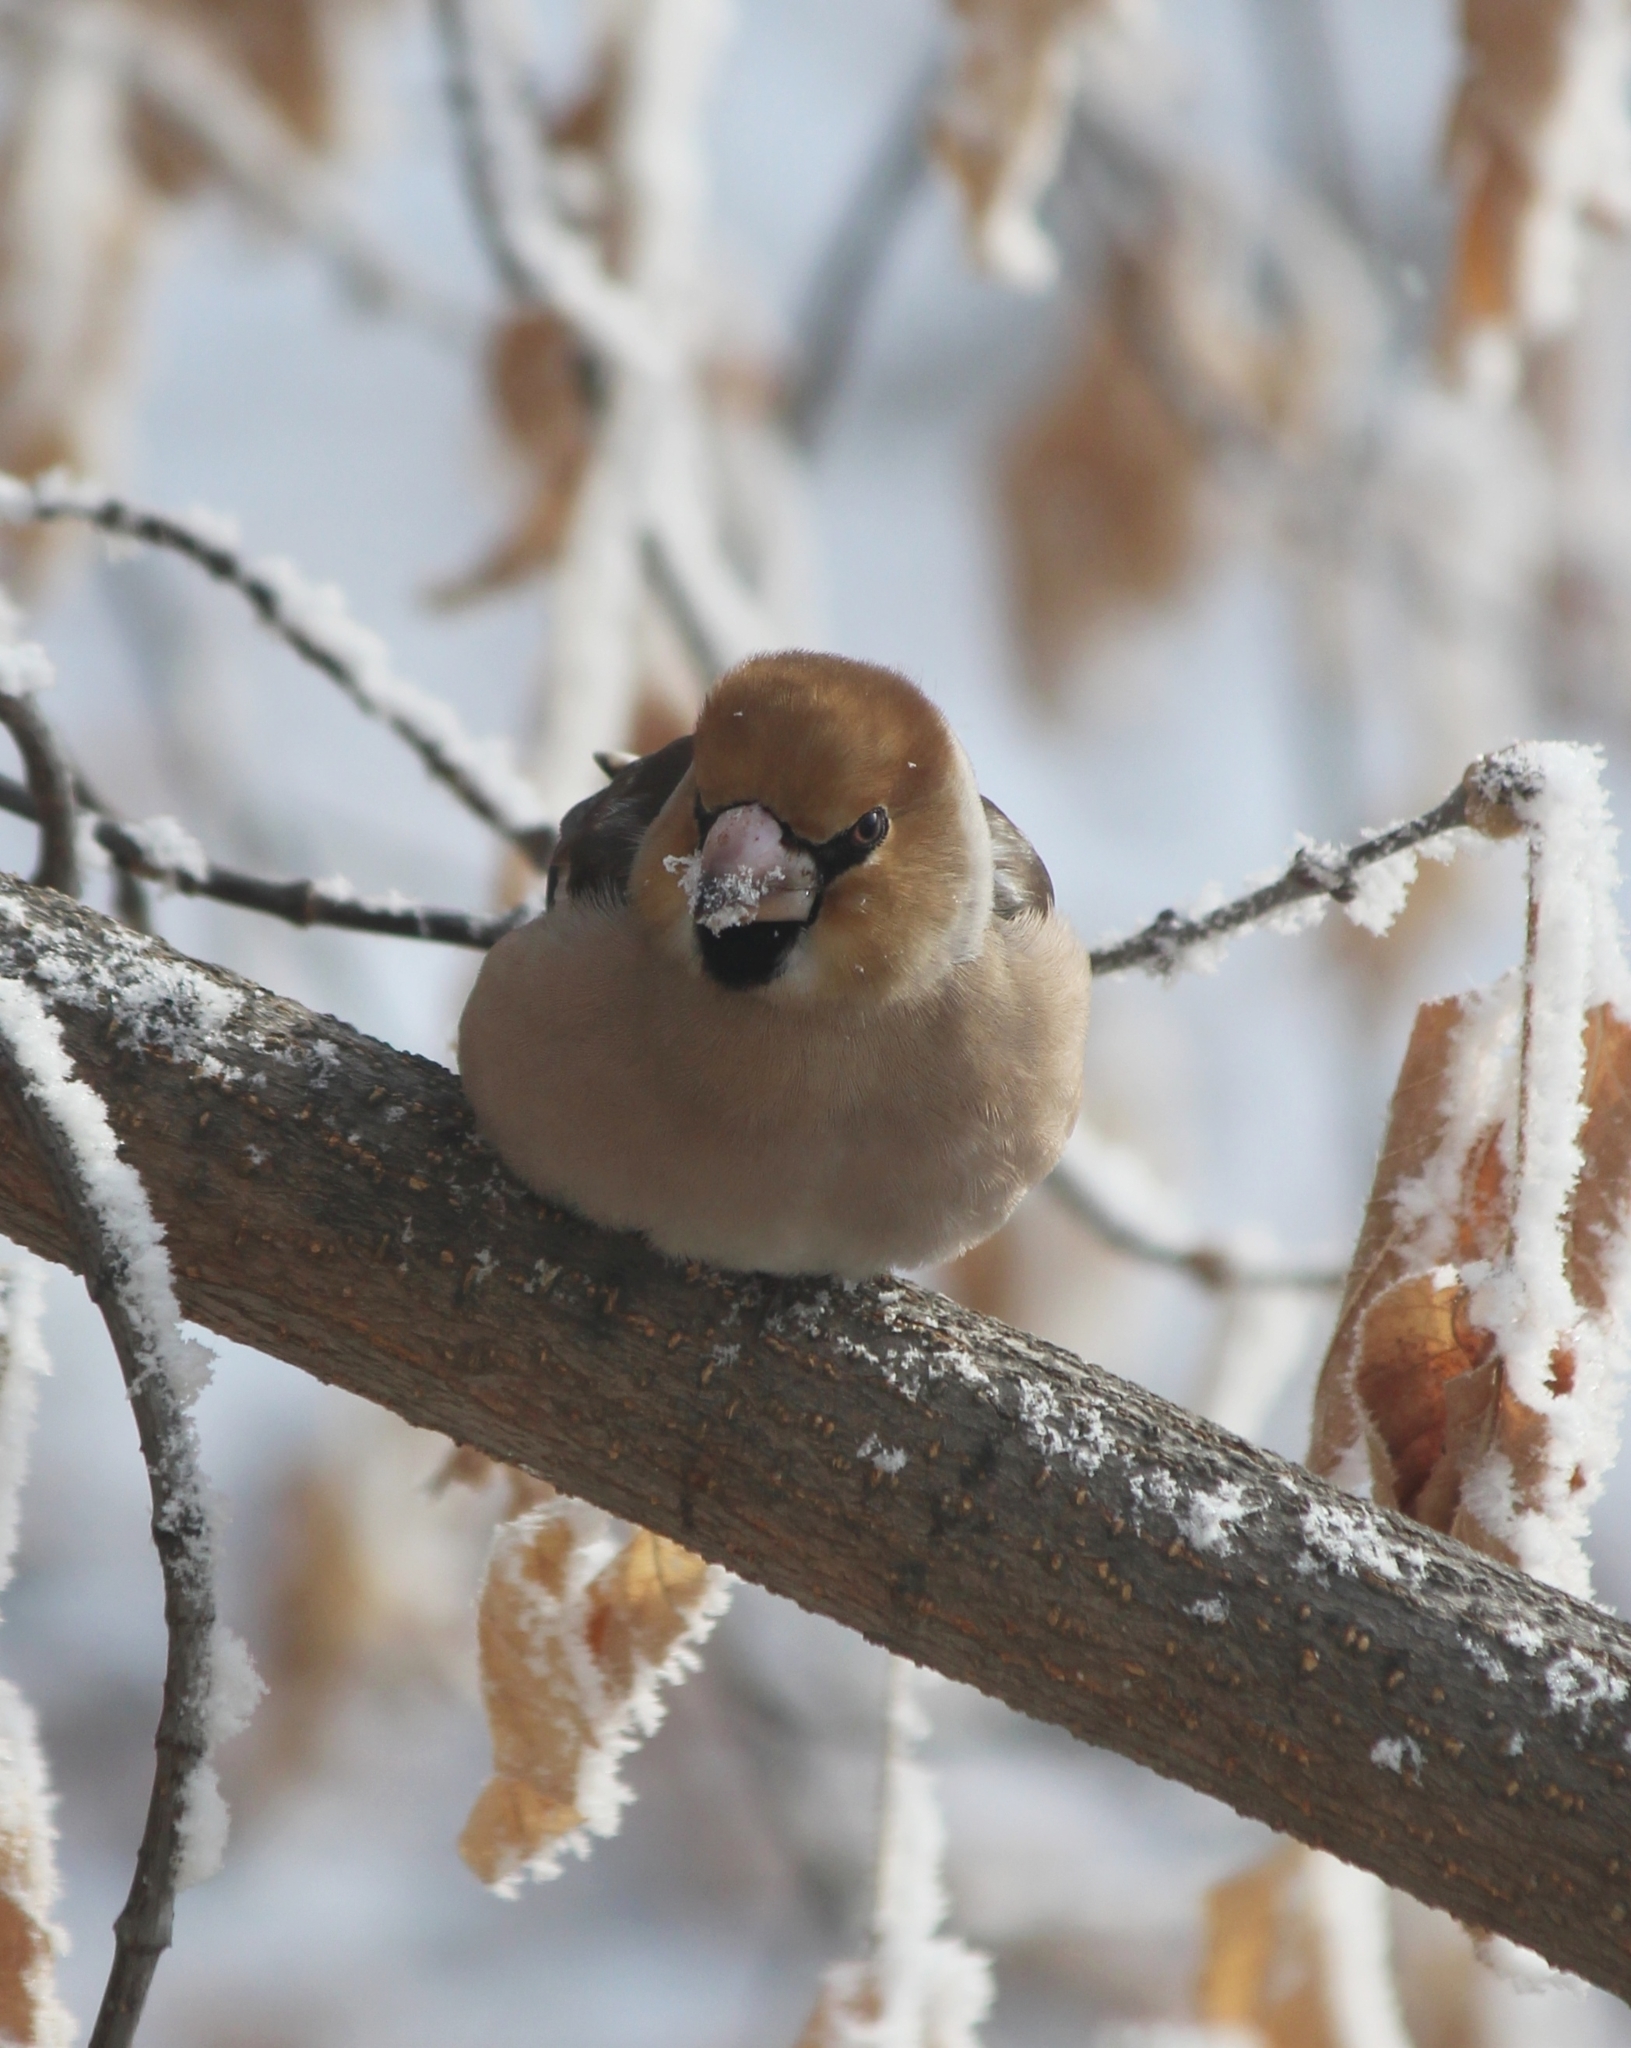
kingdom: Animalia
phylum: Chordata
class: Aves
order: Passeriformes
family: Fringillidae
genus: Coccothraustes
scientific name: Coccothraustes coccothraustes
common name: Hawfinch
